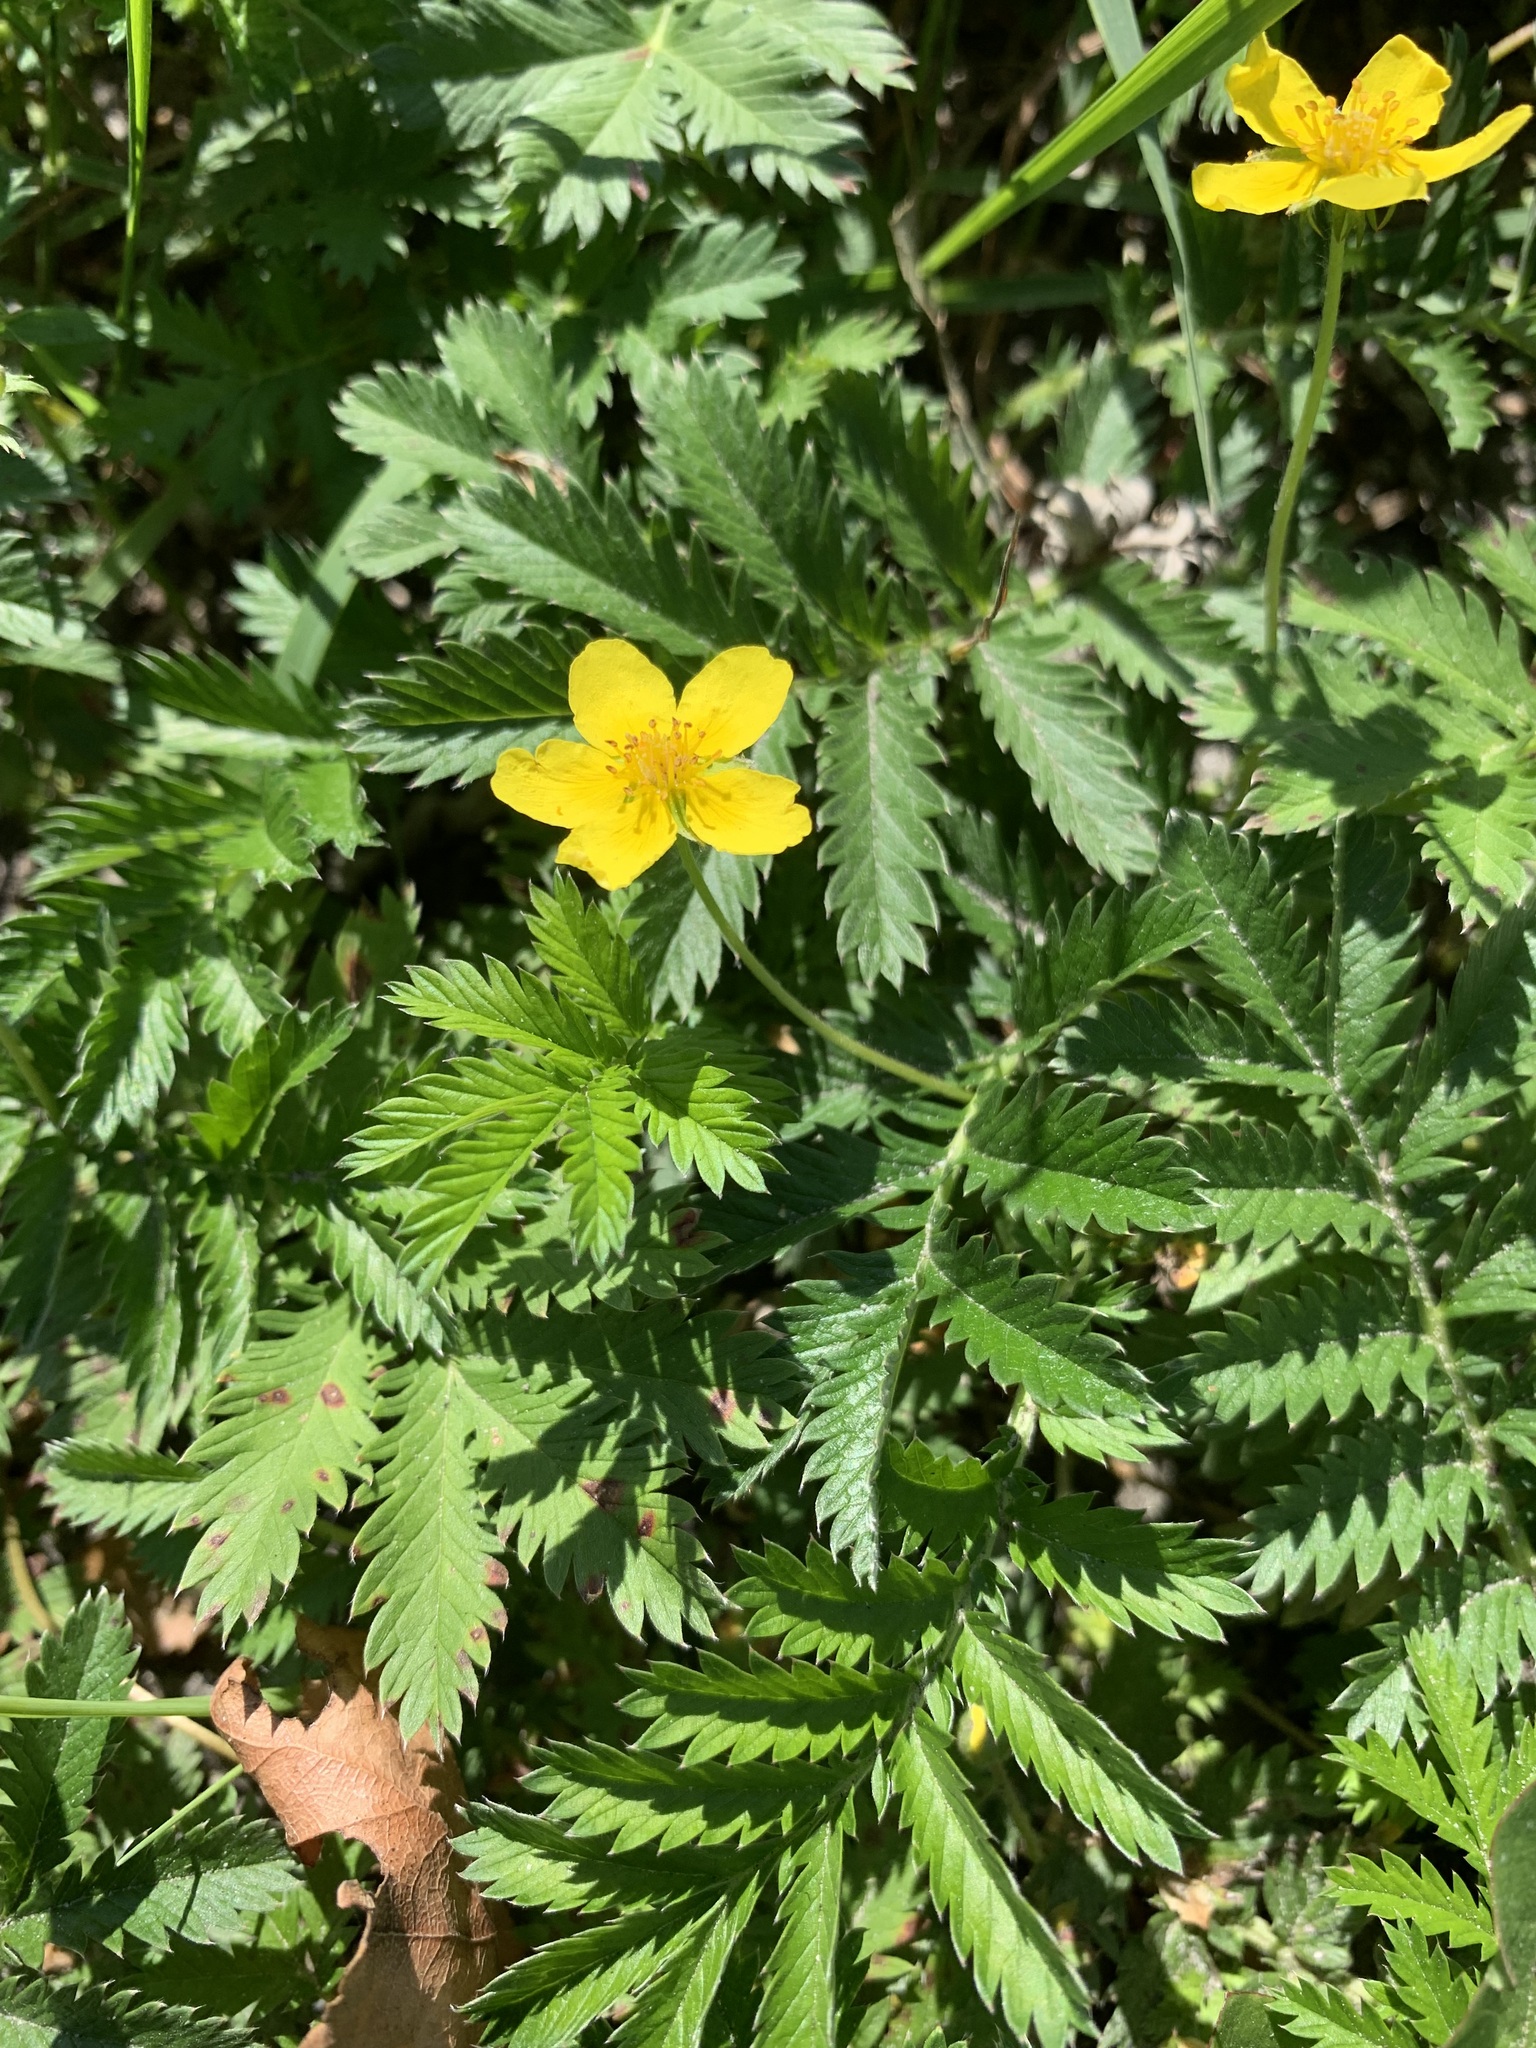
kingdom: Plantae
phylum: Tracheophyta
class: Magnoliopsida
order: Rosales
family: Rosaceae
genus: Argentina
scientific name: Argentina anserina
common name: Common silverweed
